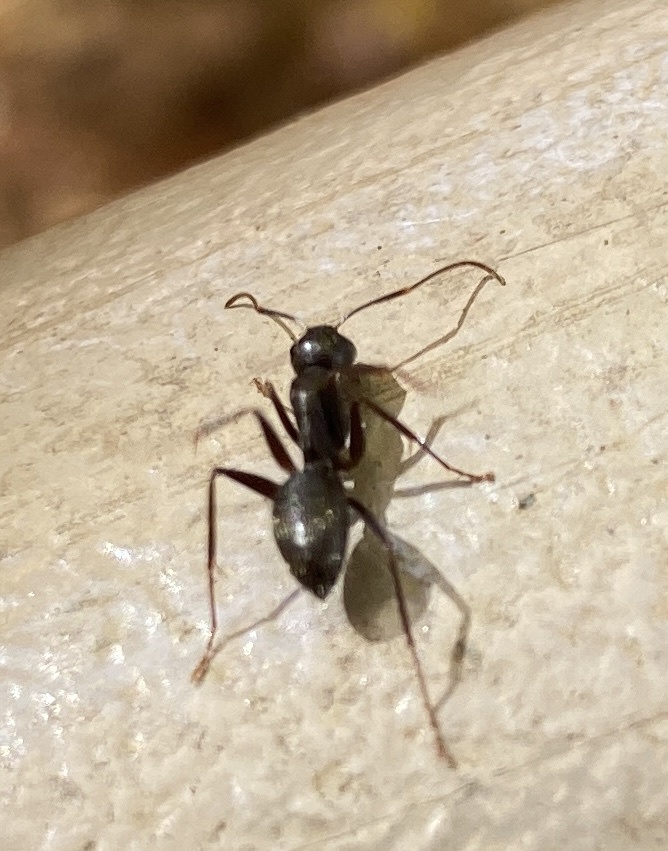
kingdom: Animalia
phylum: Arthropoda
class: Insecta
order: Hymenoptera
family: Formicidae
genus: Camponotus
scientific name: Camponotus pennsylvanicus
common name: Black carpenter ant
